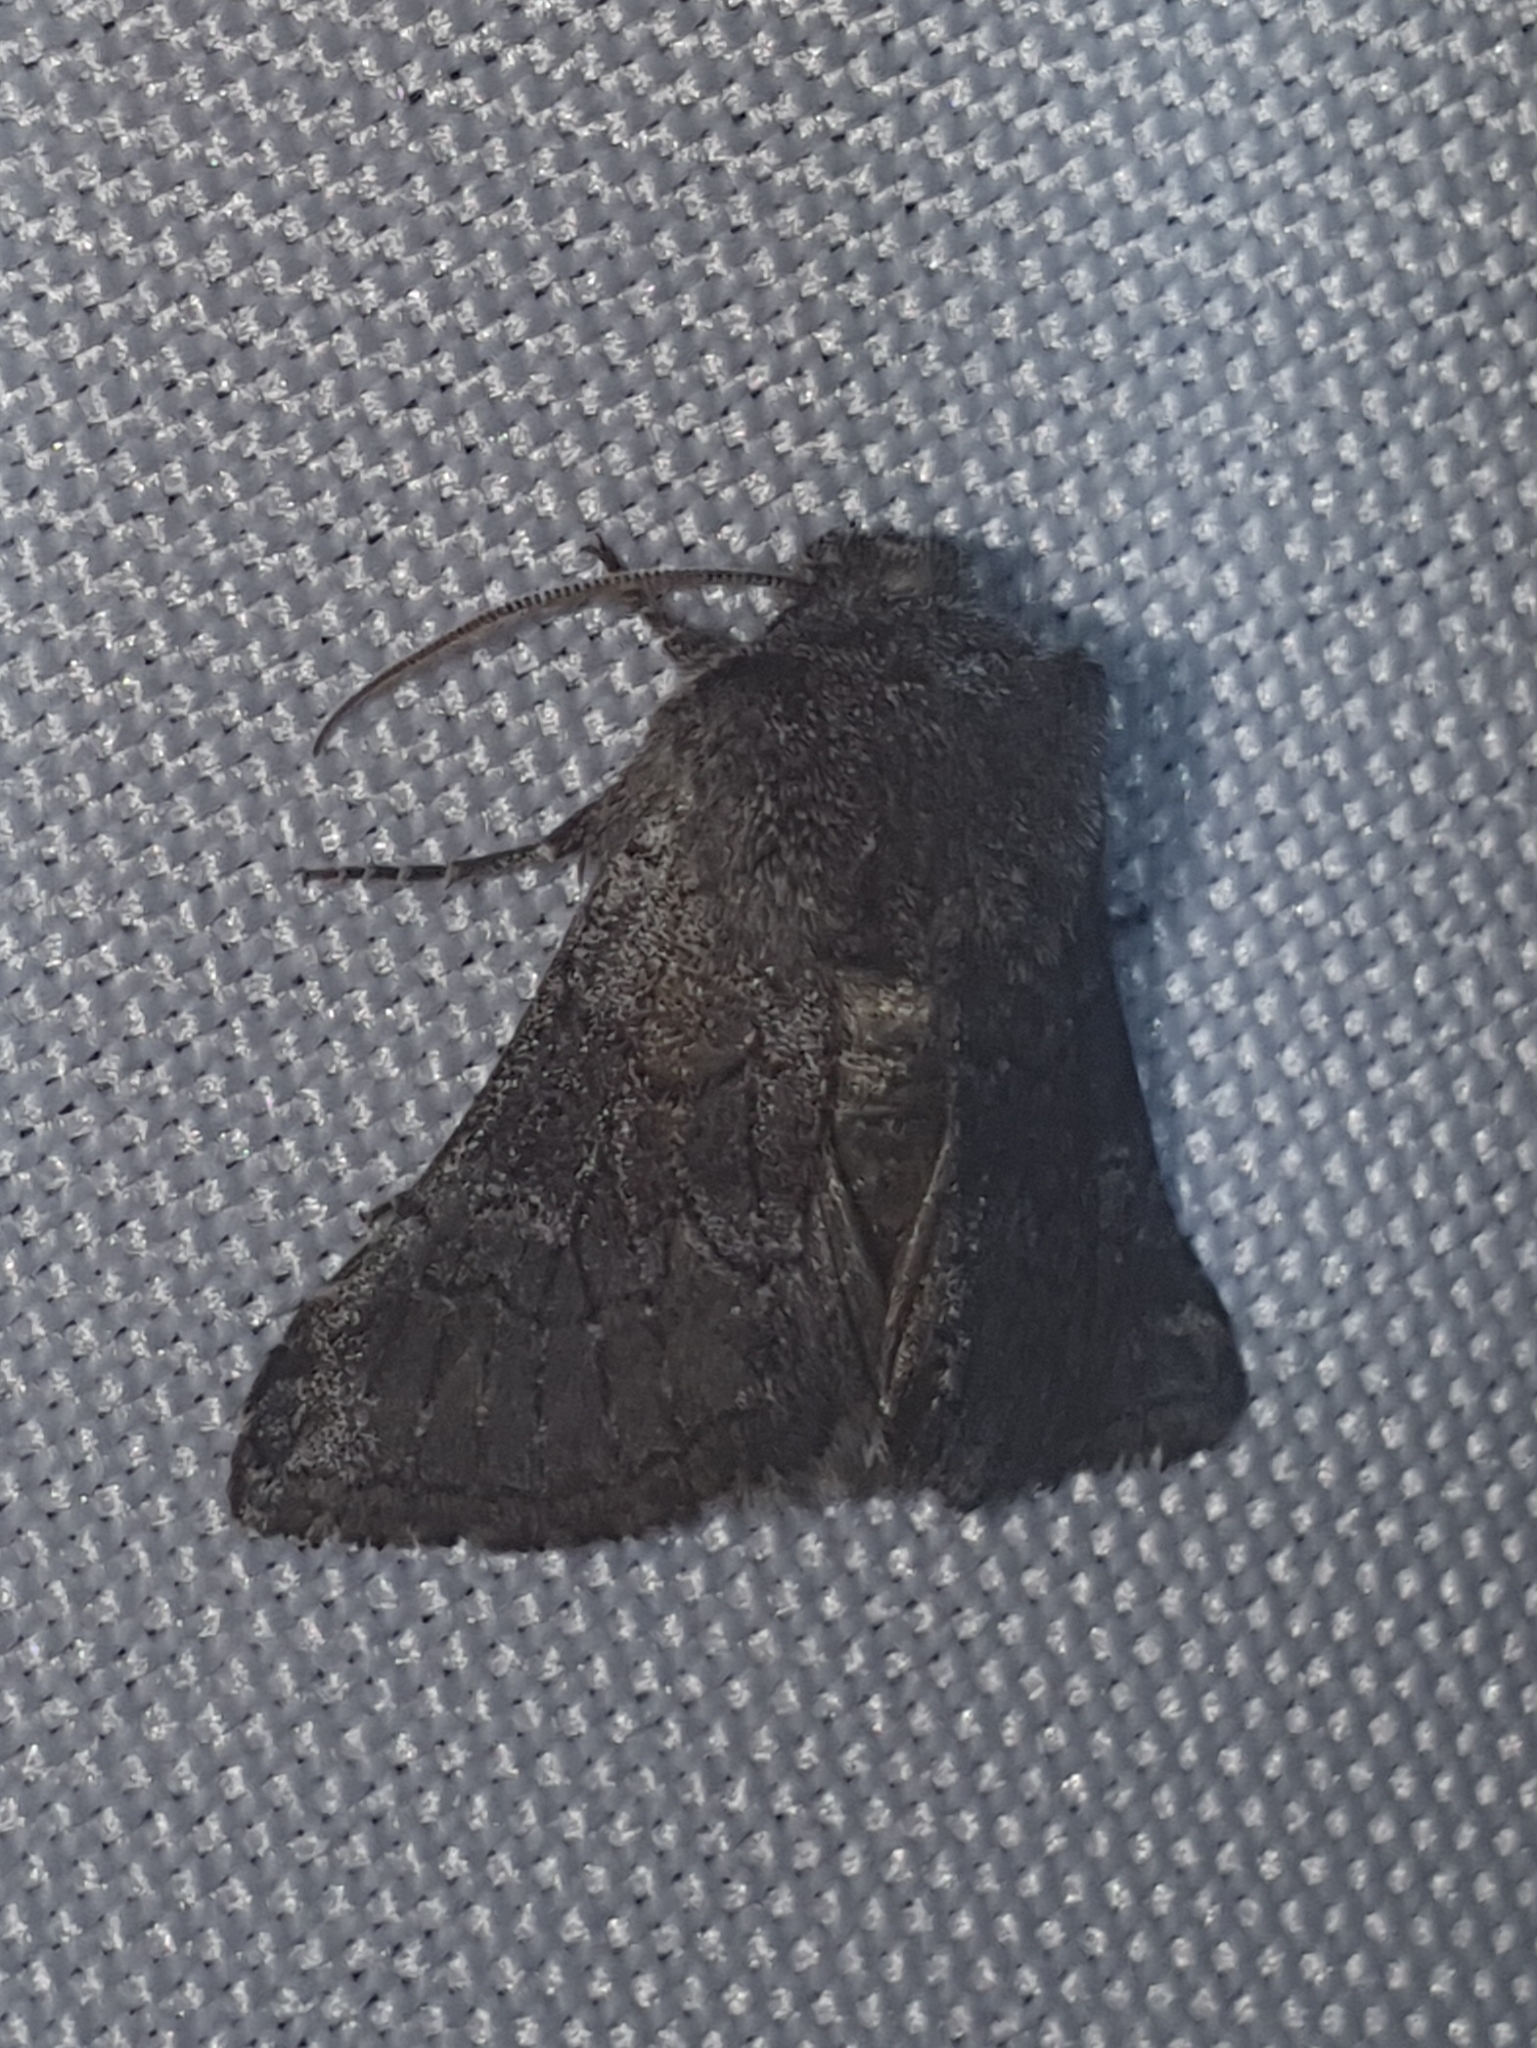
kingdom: Animalia
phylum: Arthropoda
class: Insecta
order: Lepidoptera
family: Noctuidae
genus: Cleonymia
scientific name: Cleonymia diffluens
